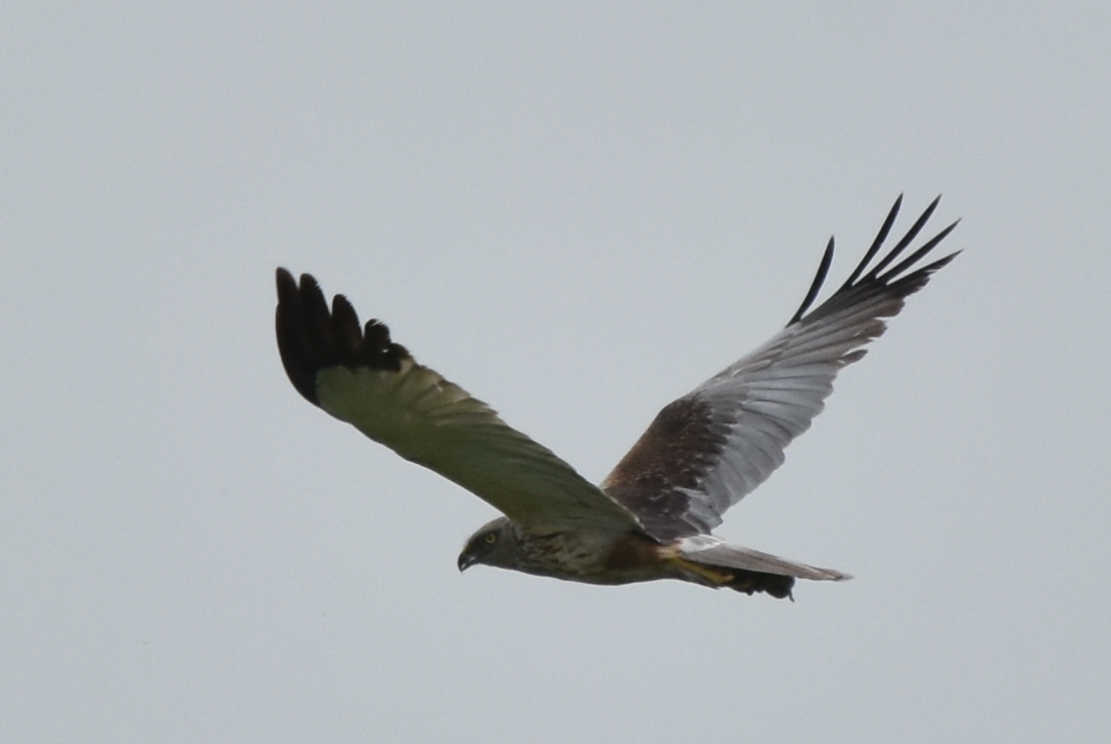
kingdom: Animalia
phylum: Chordata
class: Aves
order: Accipitriformes
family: Accipitridae
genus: Circus
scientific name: Circus aeruginosus
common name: Western marsh harrier
